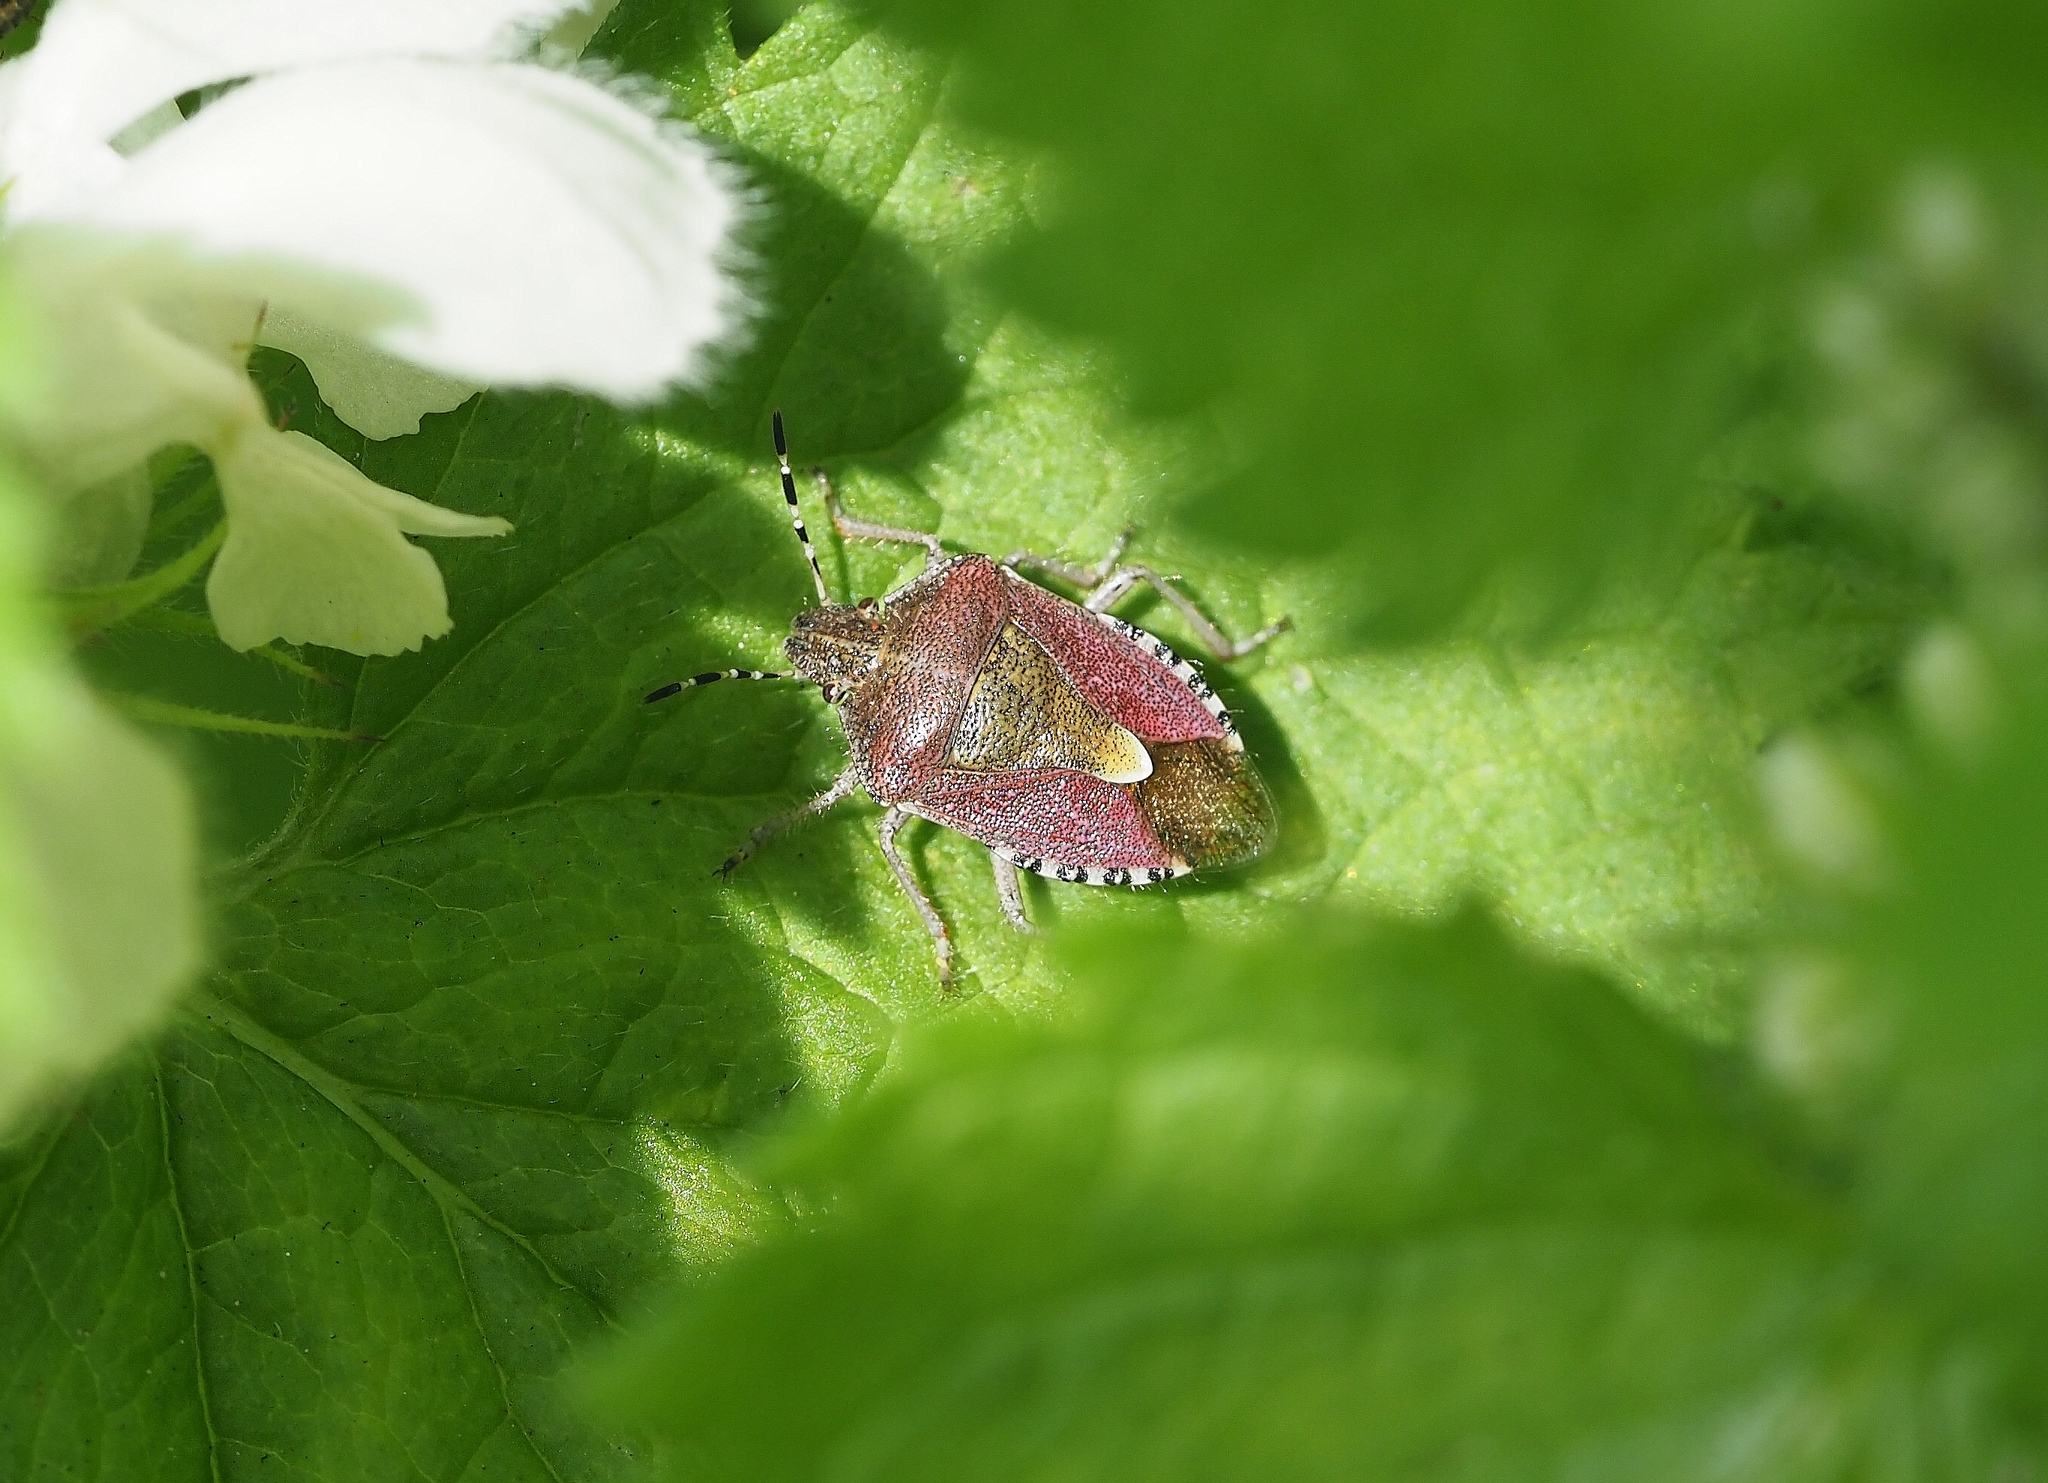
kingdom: Animalia
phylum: Arthropoda
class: Insecta
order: Hemiptera
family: Pentatomidae
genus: Dolycoris
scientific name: Dolycoris baccarum
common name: Sloe bug
